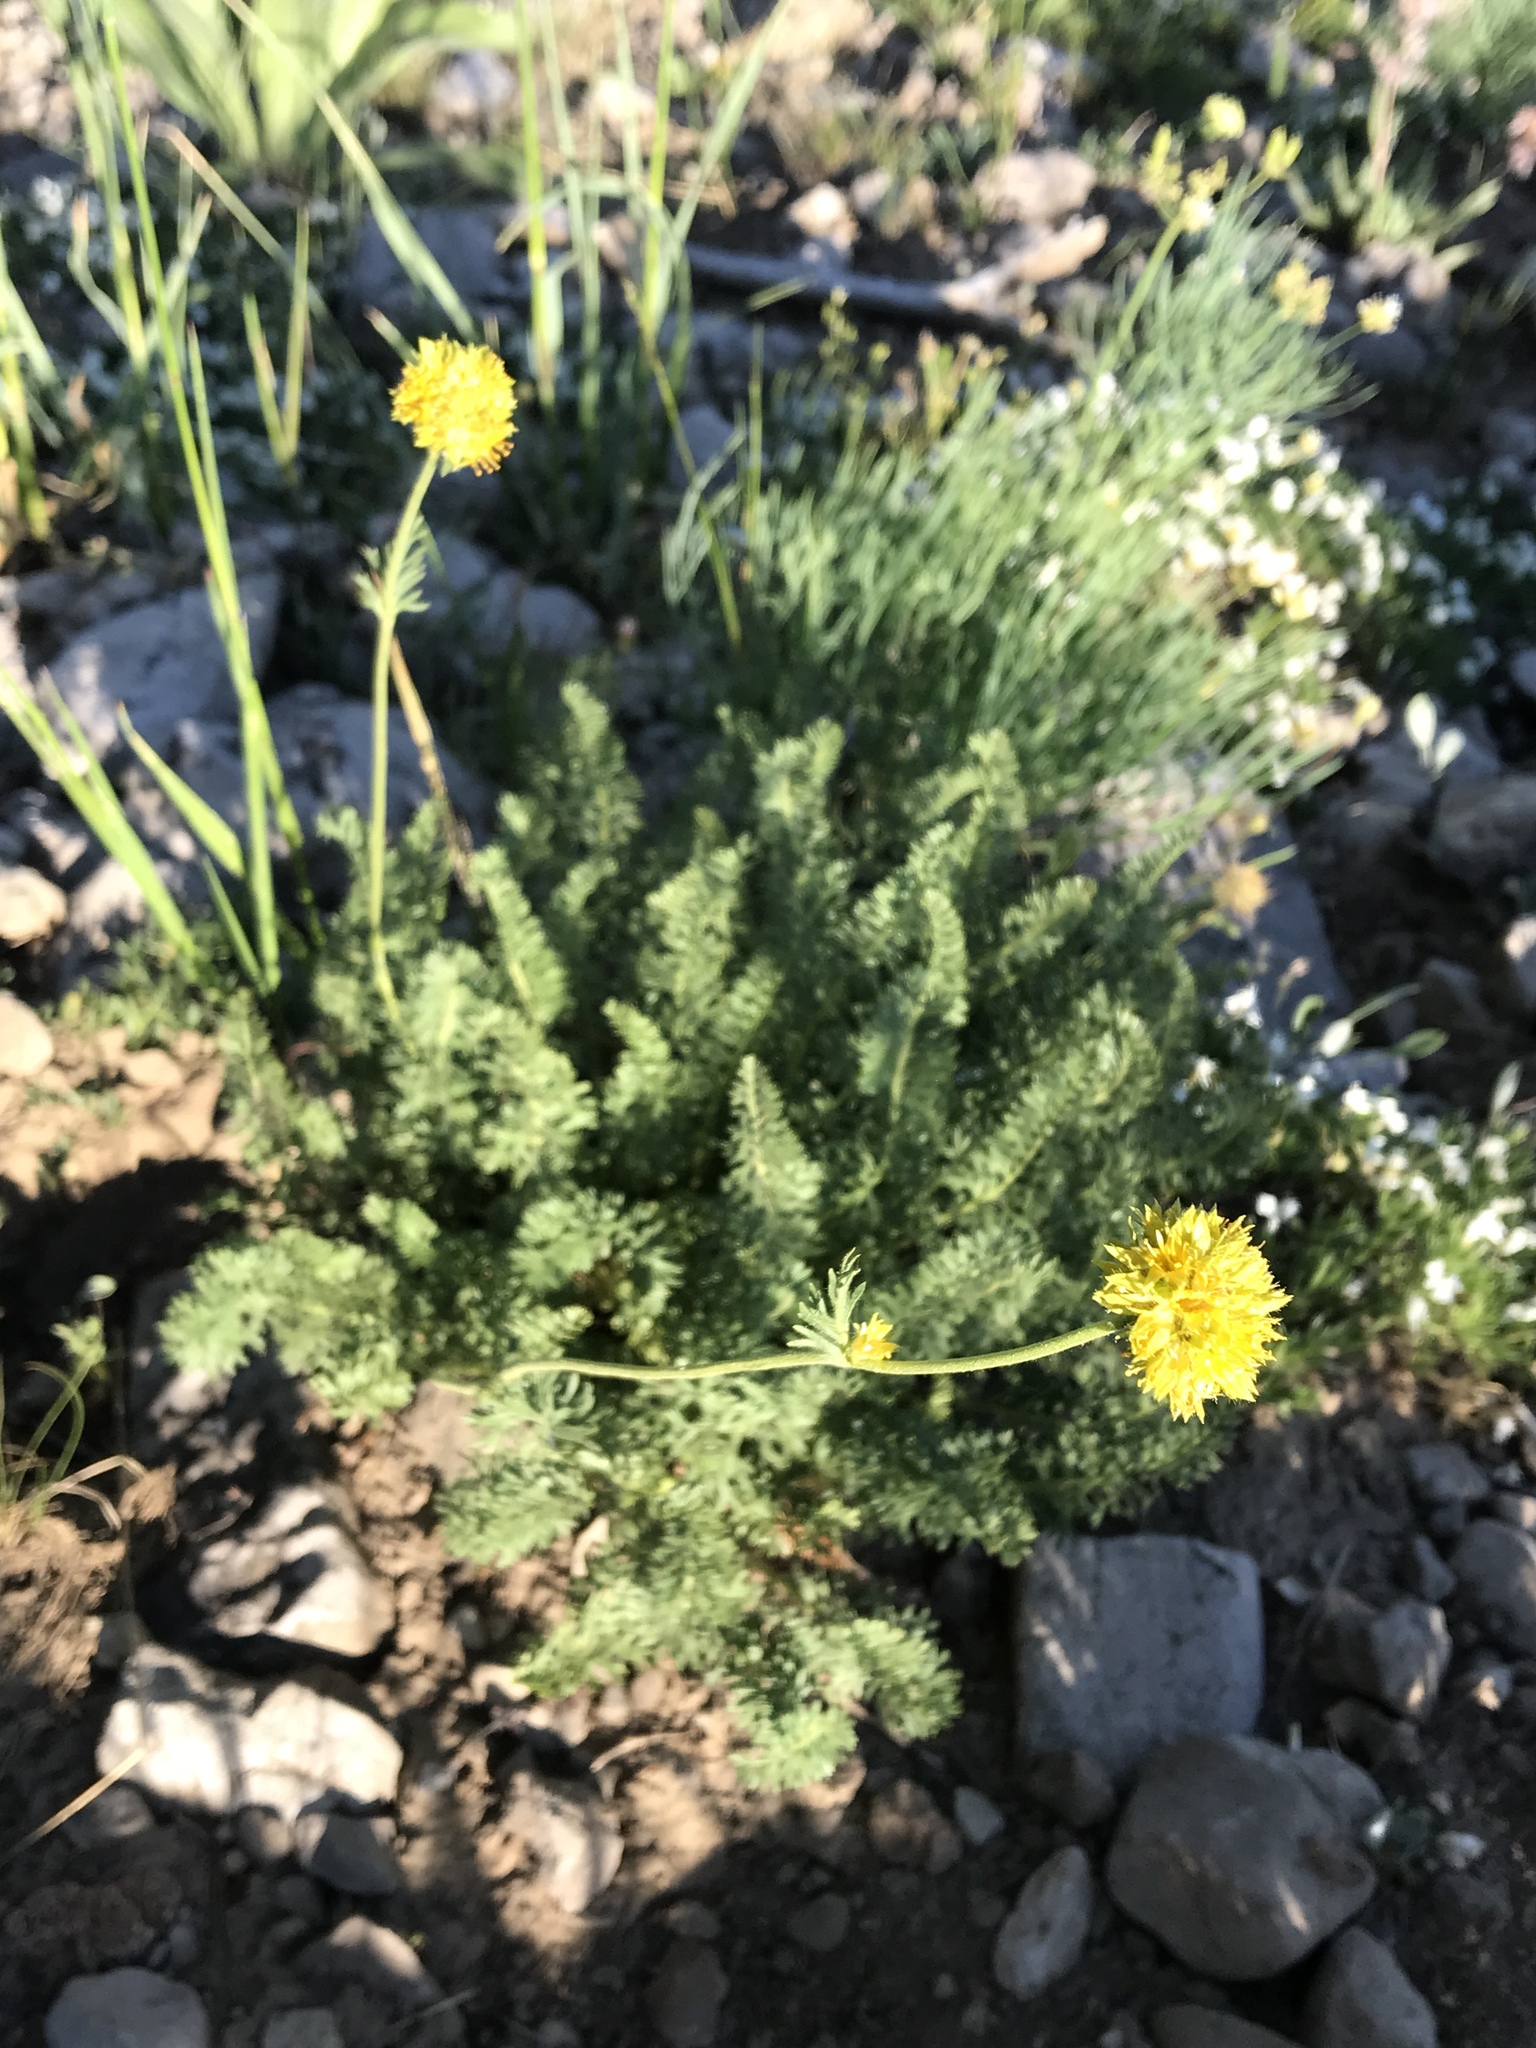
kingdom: Plantae
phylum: Tracheophyta
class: Magnoliopsida
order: Rosales
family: Rosaceae
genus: Potentilla
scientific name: Potentilla gordonii
